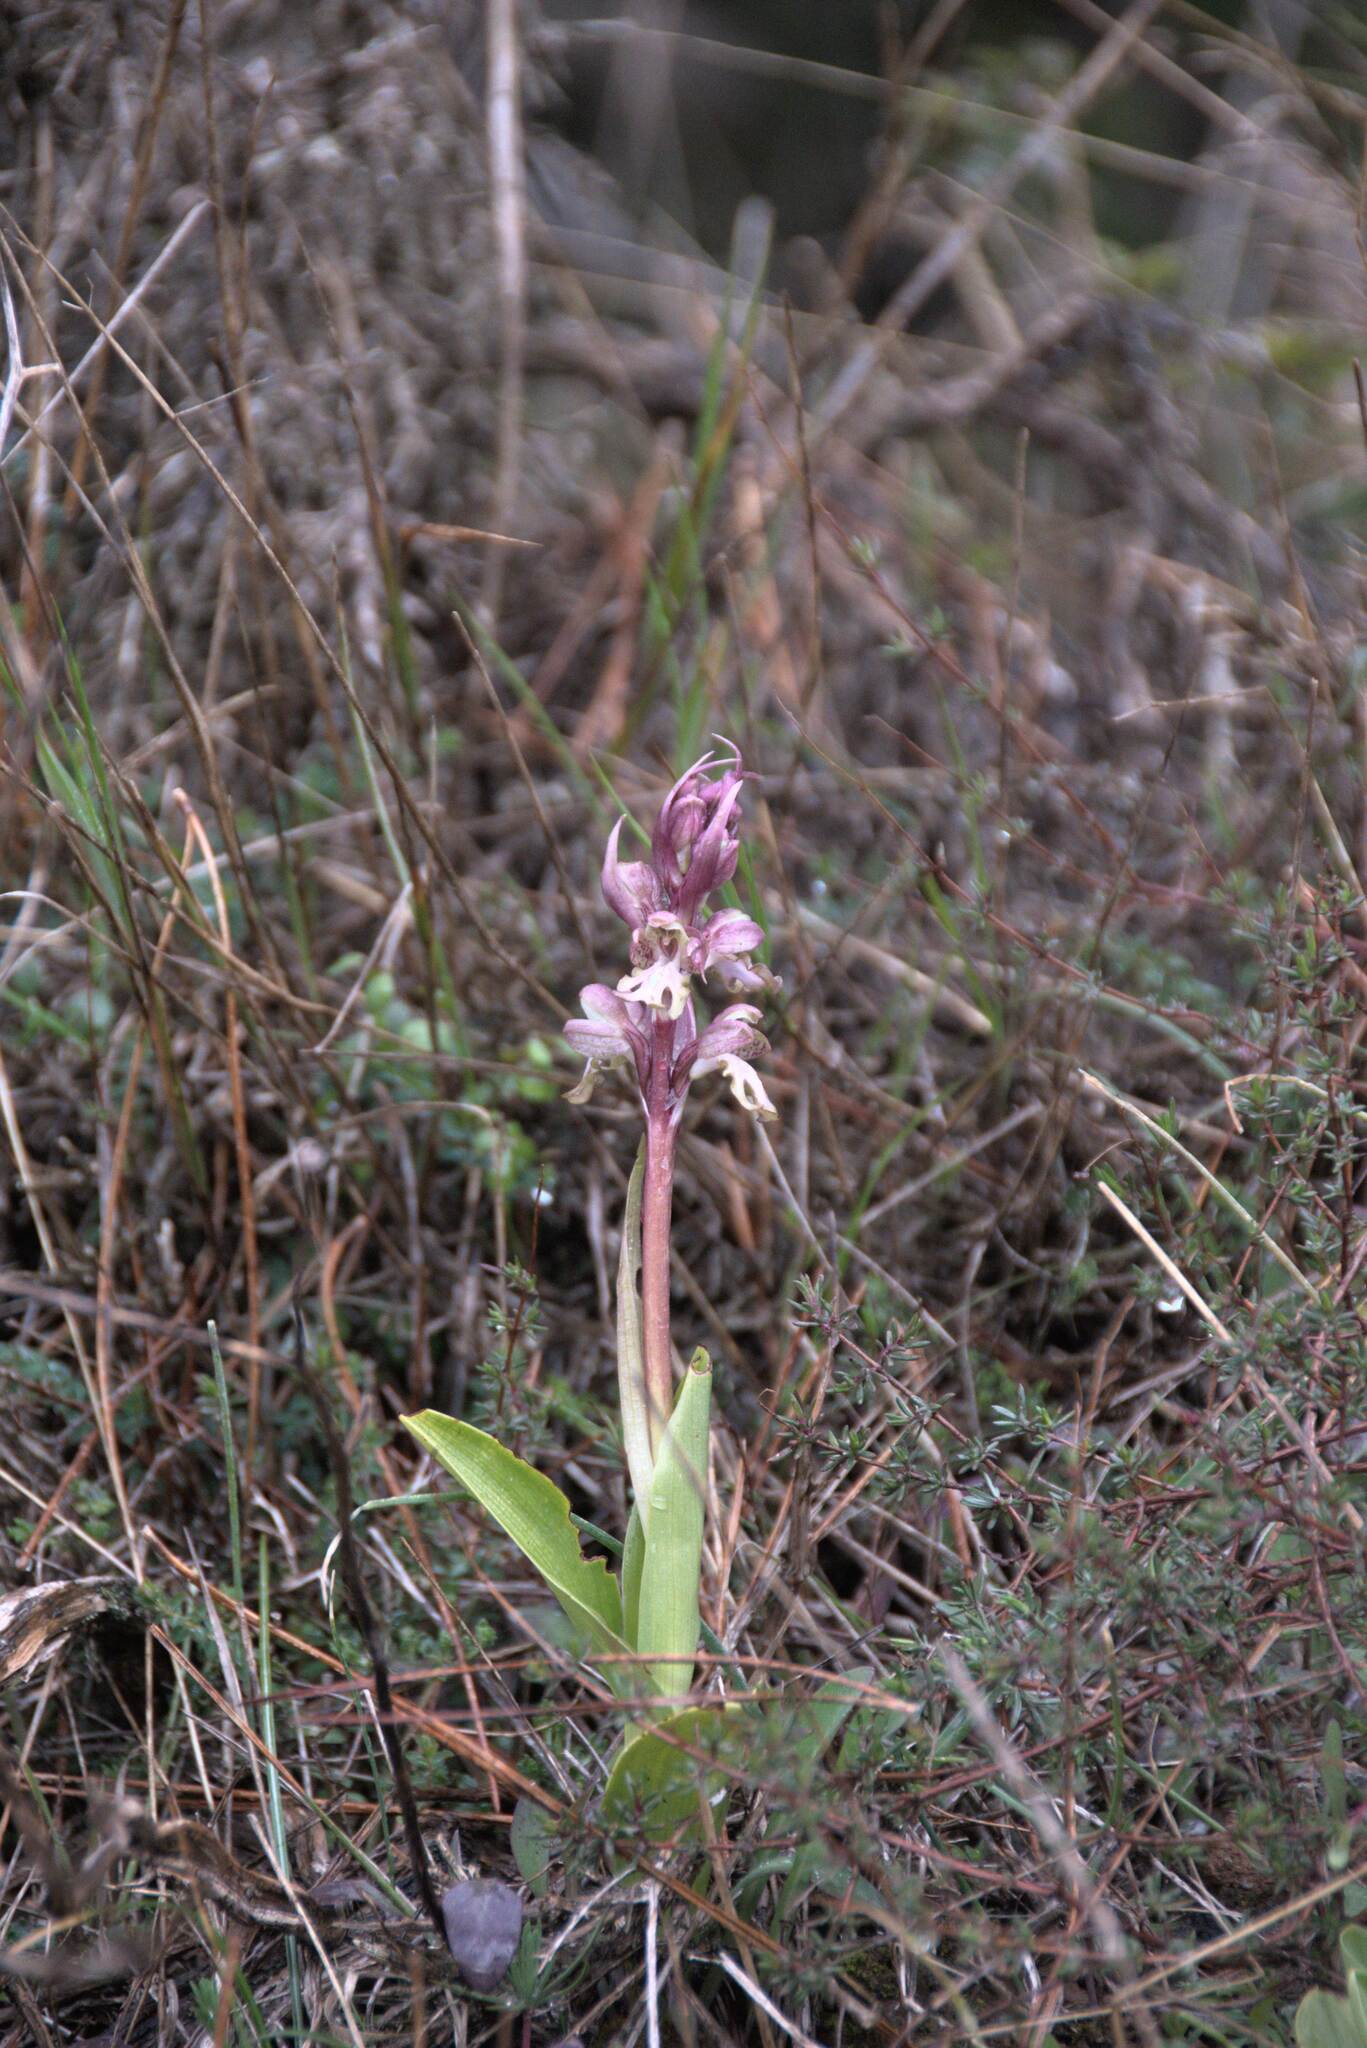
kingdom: Plantae
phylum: Tracheophyta
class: Liliopsida
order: Asparagales
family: Orchidaceae
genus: Himantoglossum
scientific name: Himantoglossum robertianum
